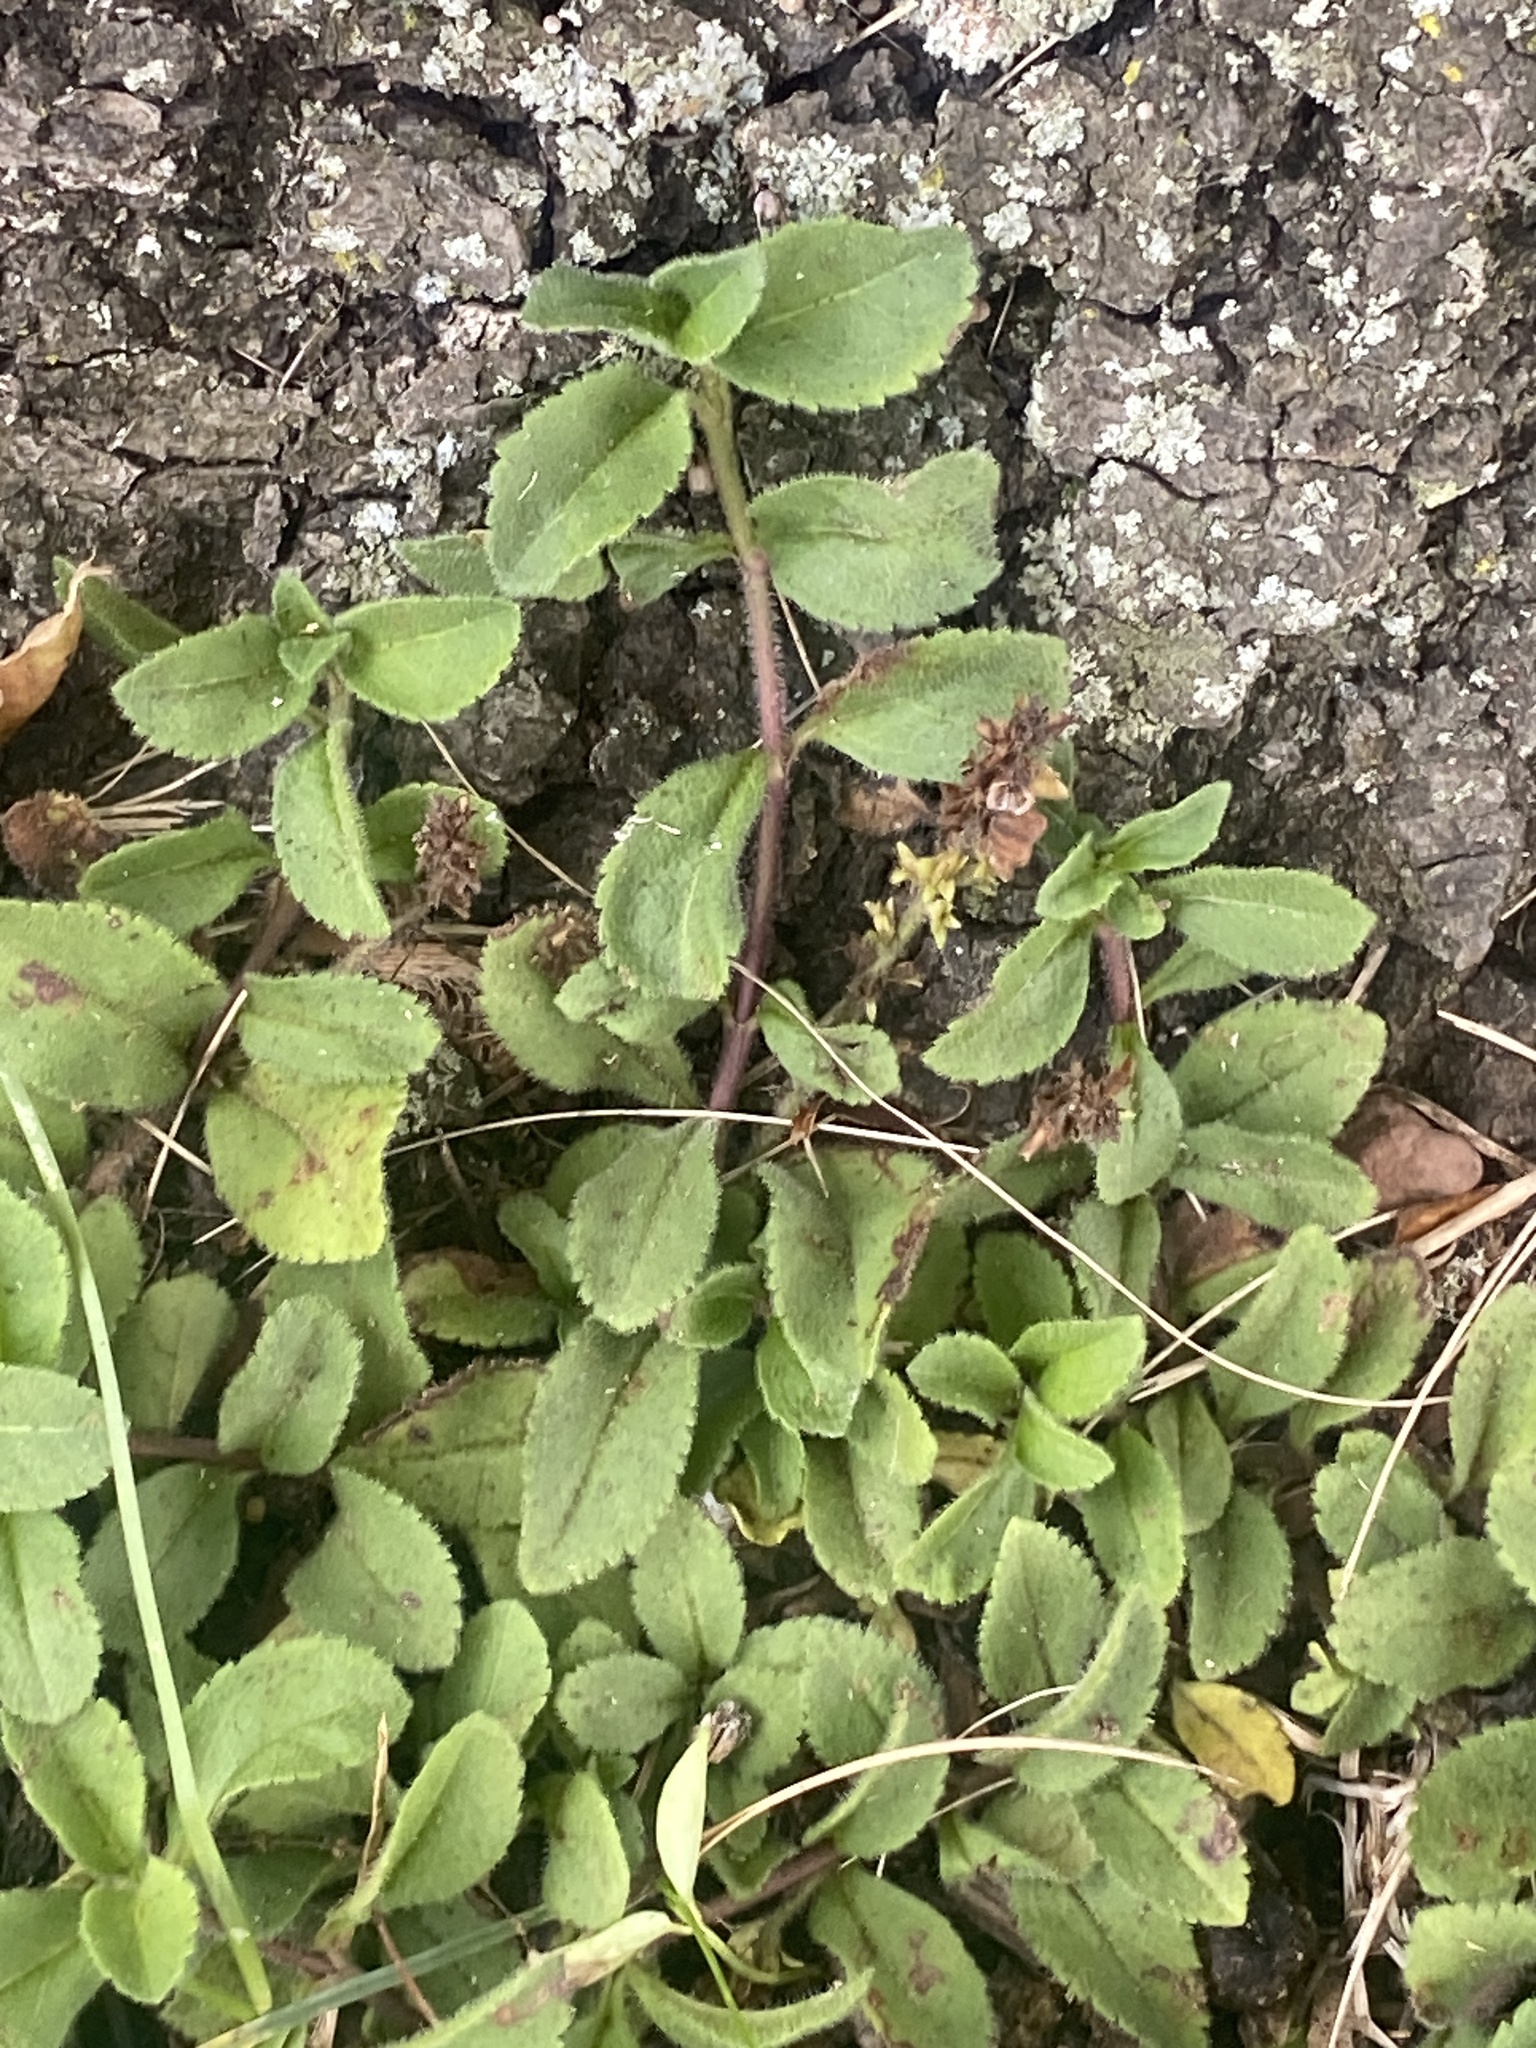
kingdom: Plantae
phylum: Tracheophyta
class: Magnoliopsida
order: Lamiales
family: Plantaginaceae
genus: Veronica
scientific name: Veronica officinalis
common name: Common speedwell
